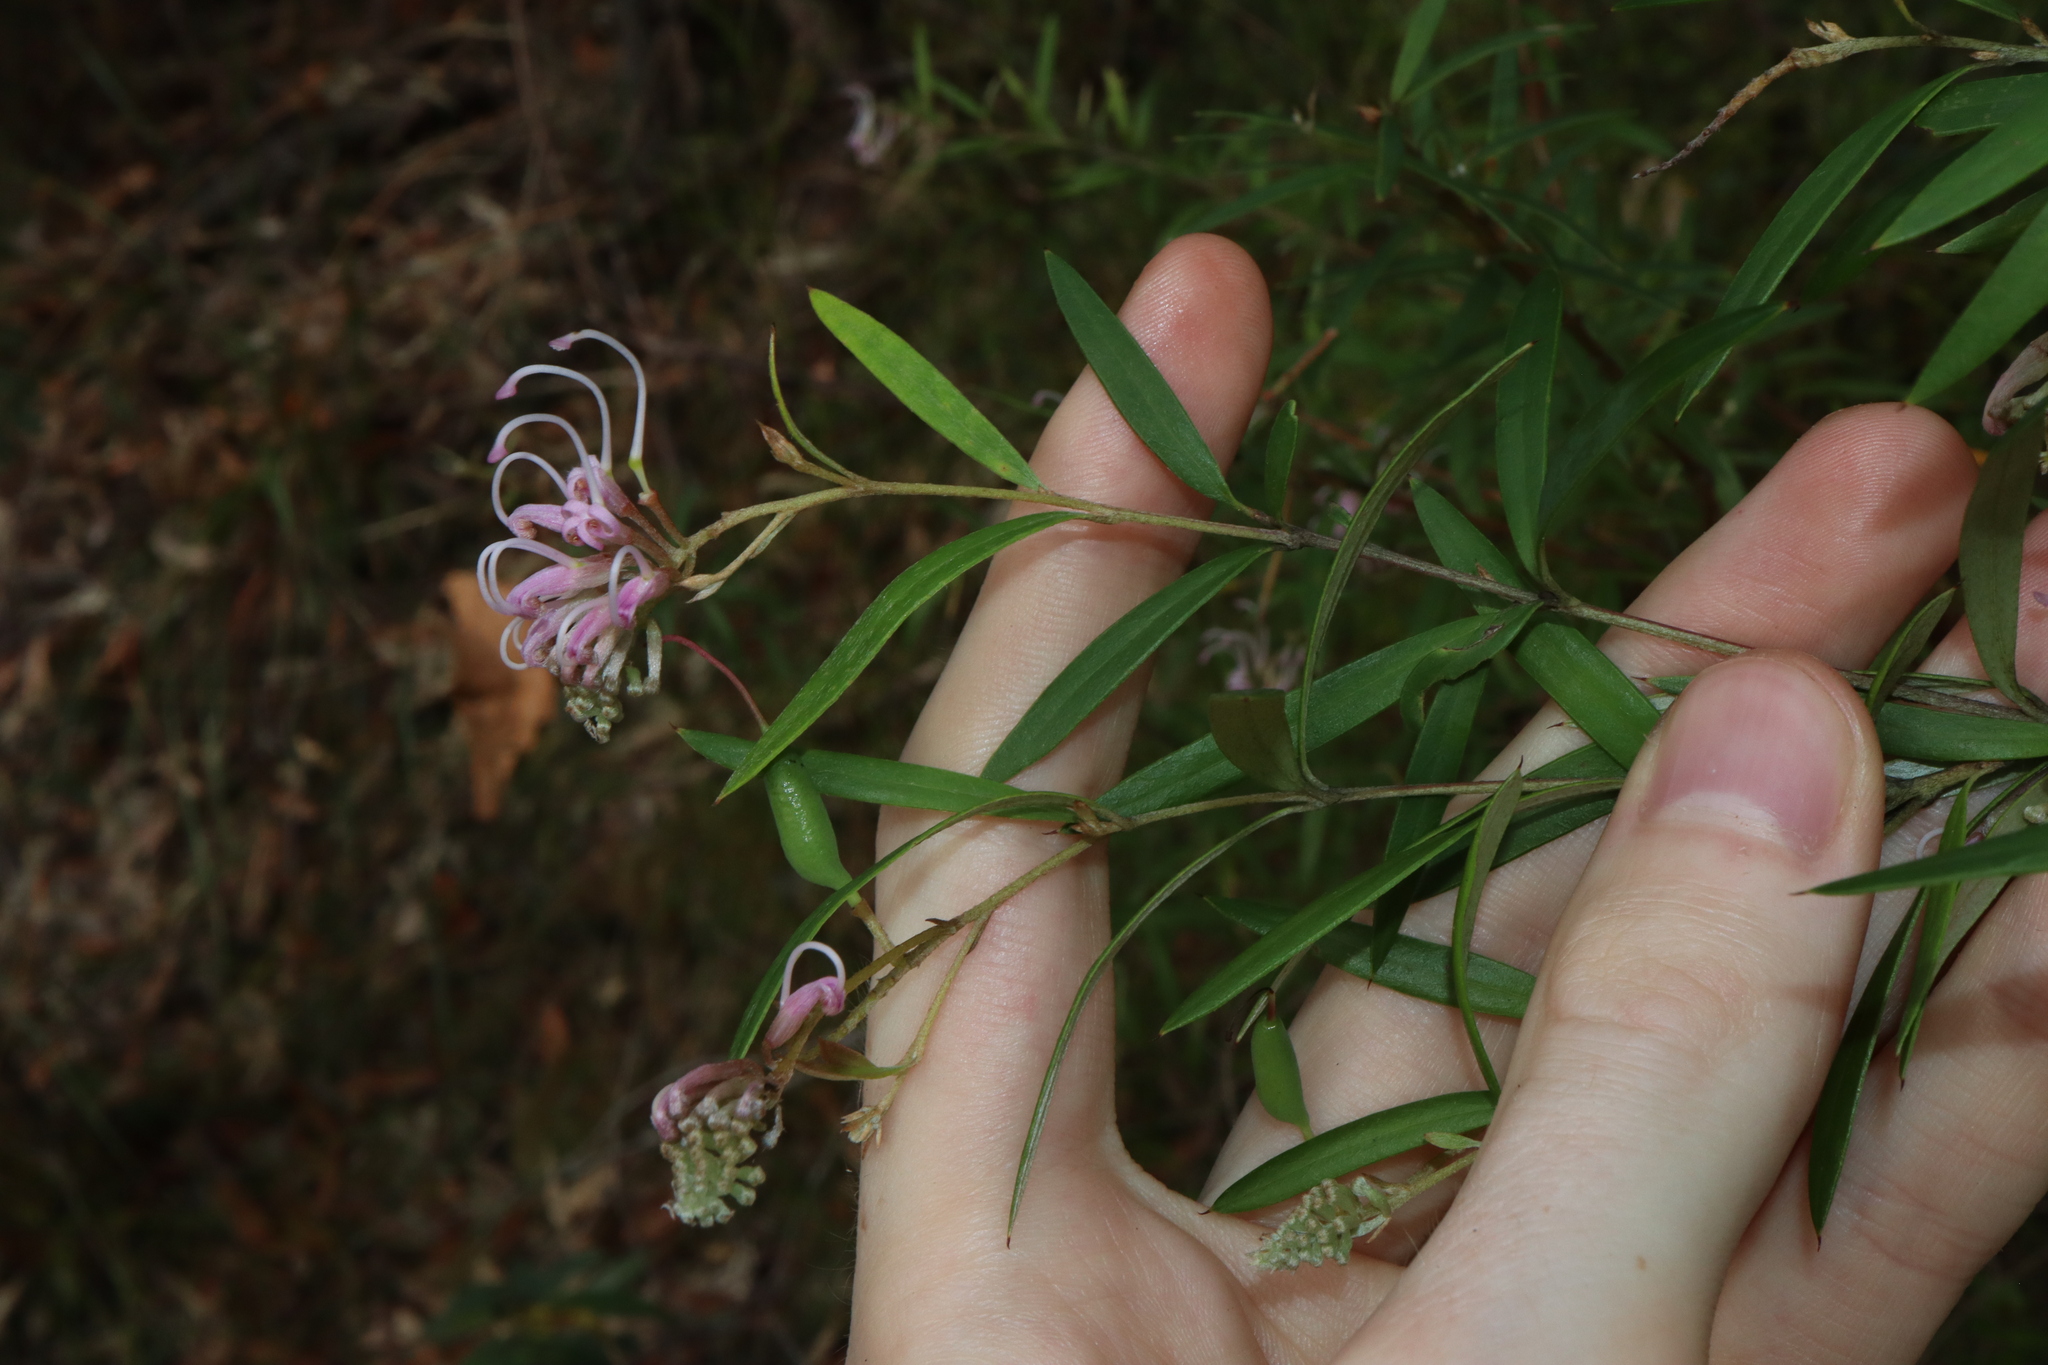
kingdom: Plantae
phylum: Tracheophyta
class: Magnoliopsida
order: Proteales
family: Proteaceae
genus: Grevillea
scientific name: Grevillea sericea
